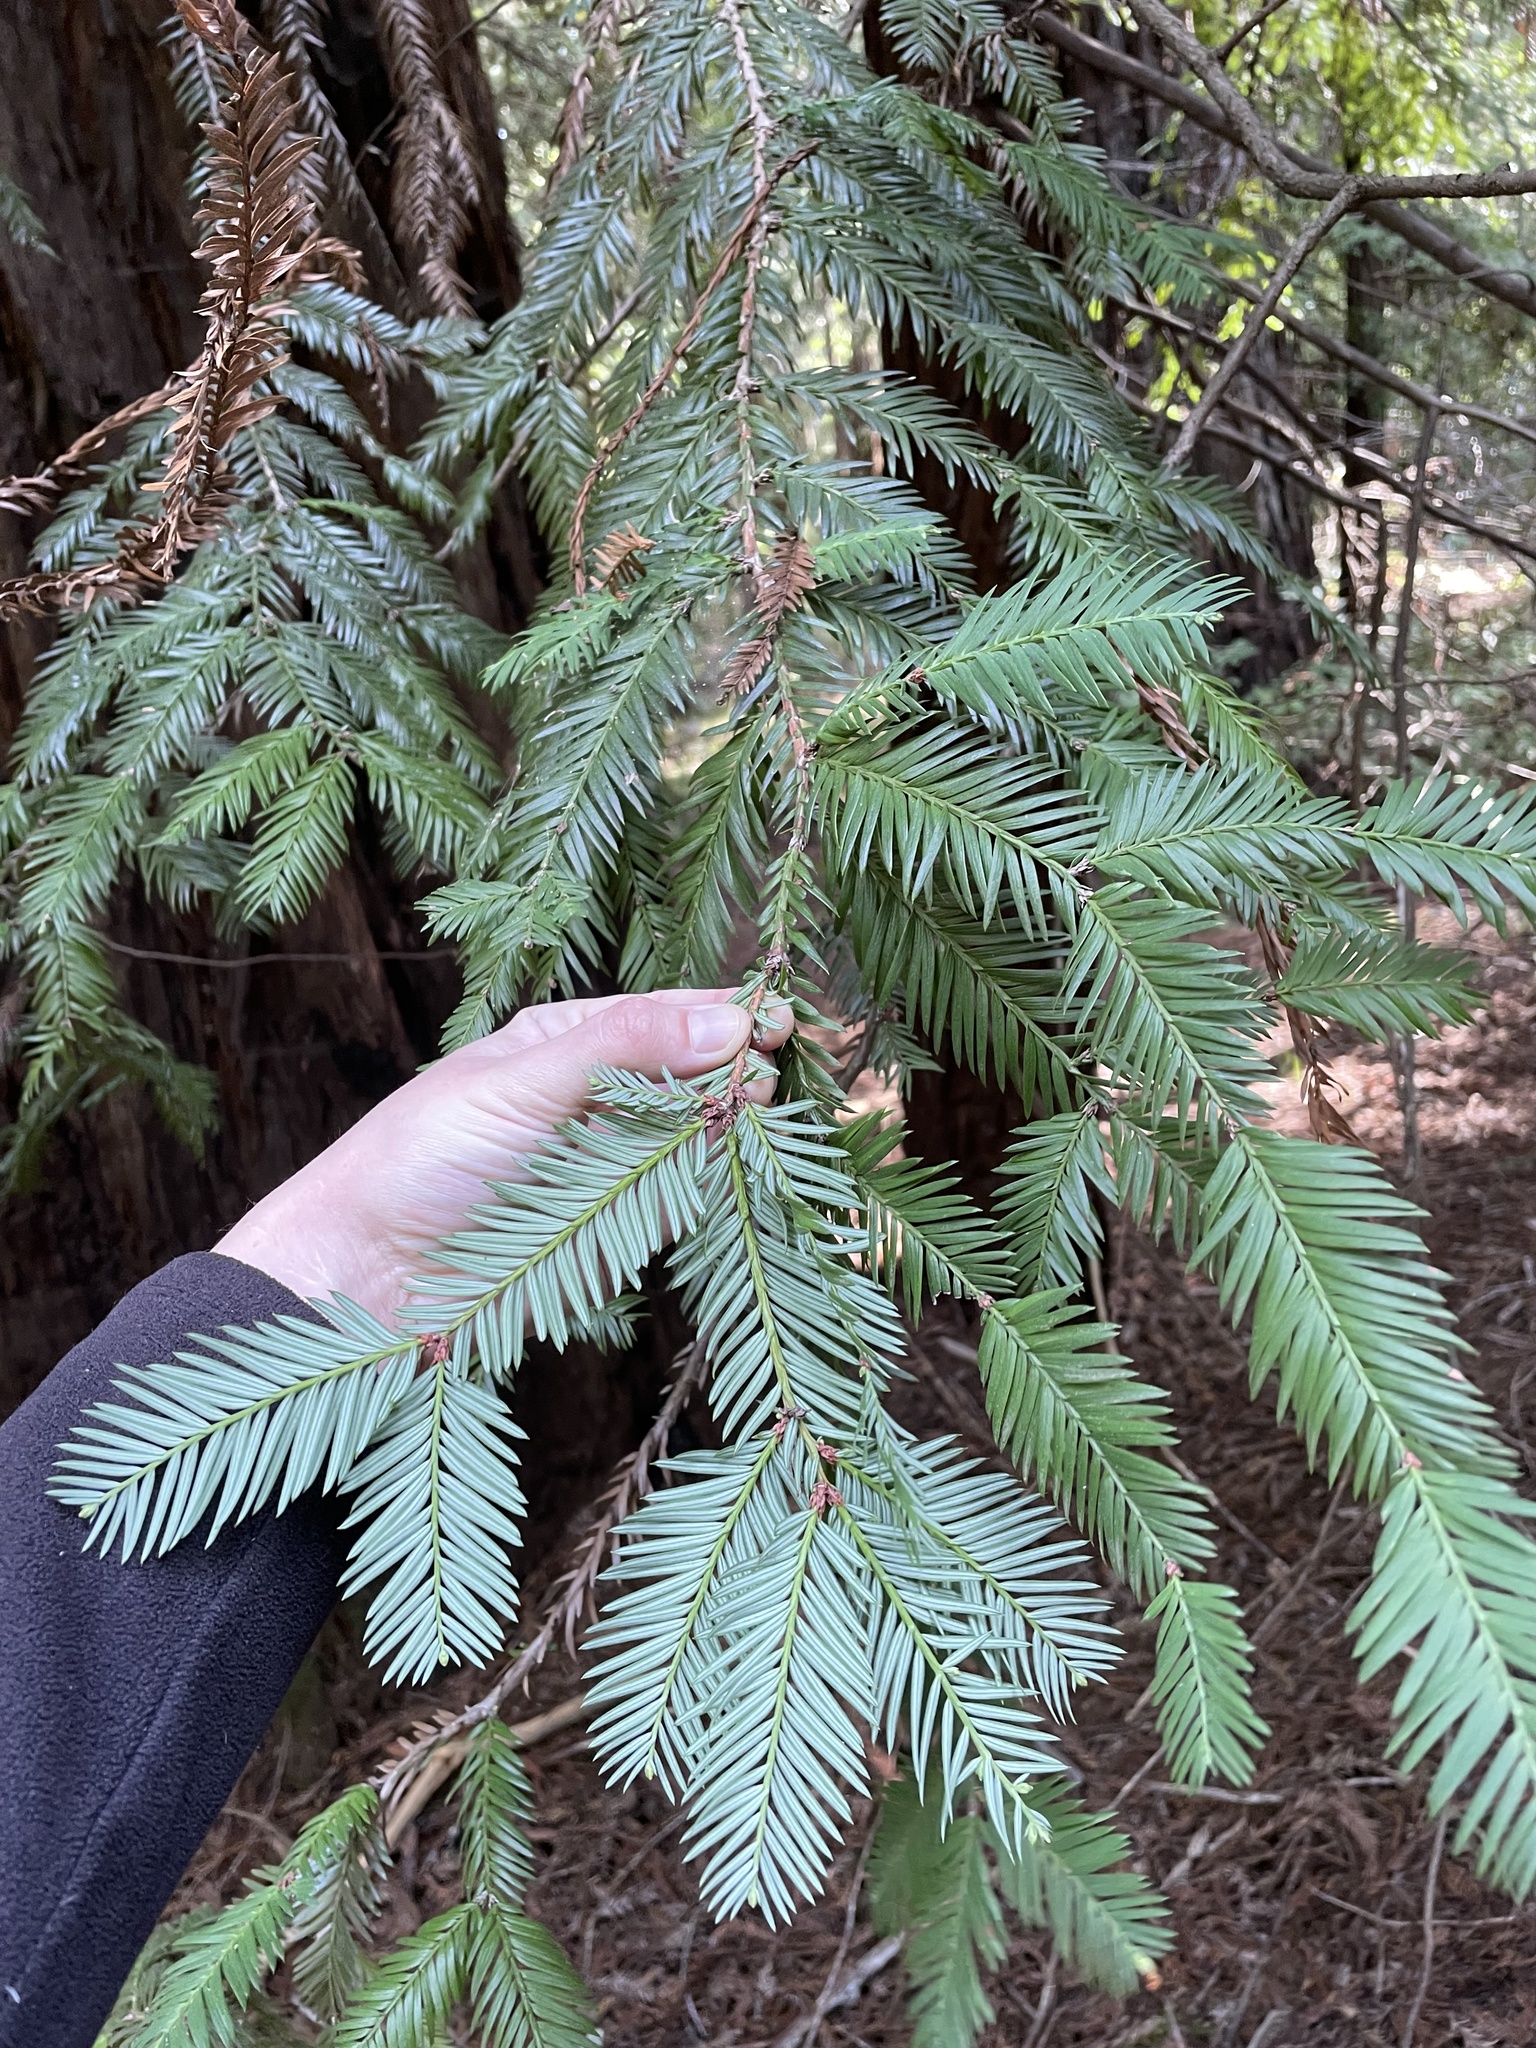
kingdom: Plantae
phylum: Tracheophyta
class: Pinopsida
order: Pinales
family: Cupressaceae
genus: Sequoia
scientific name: Sequoia sempervirens
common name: Coast redwood
